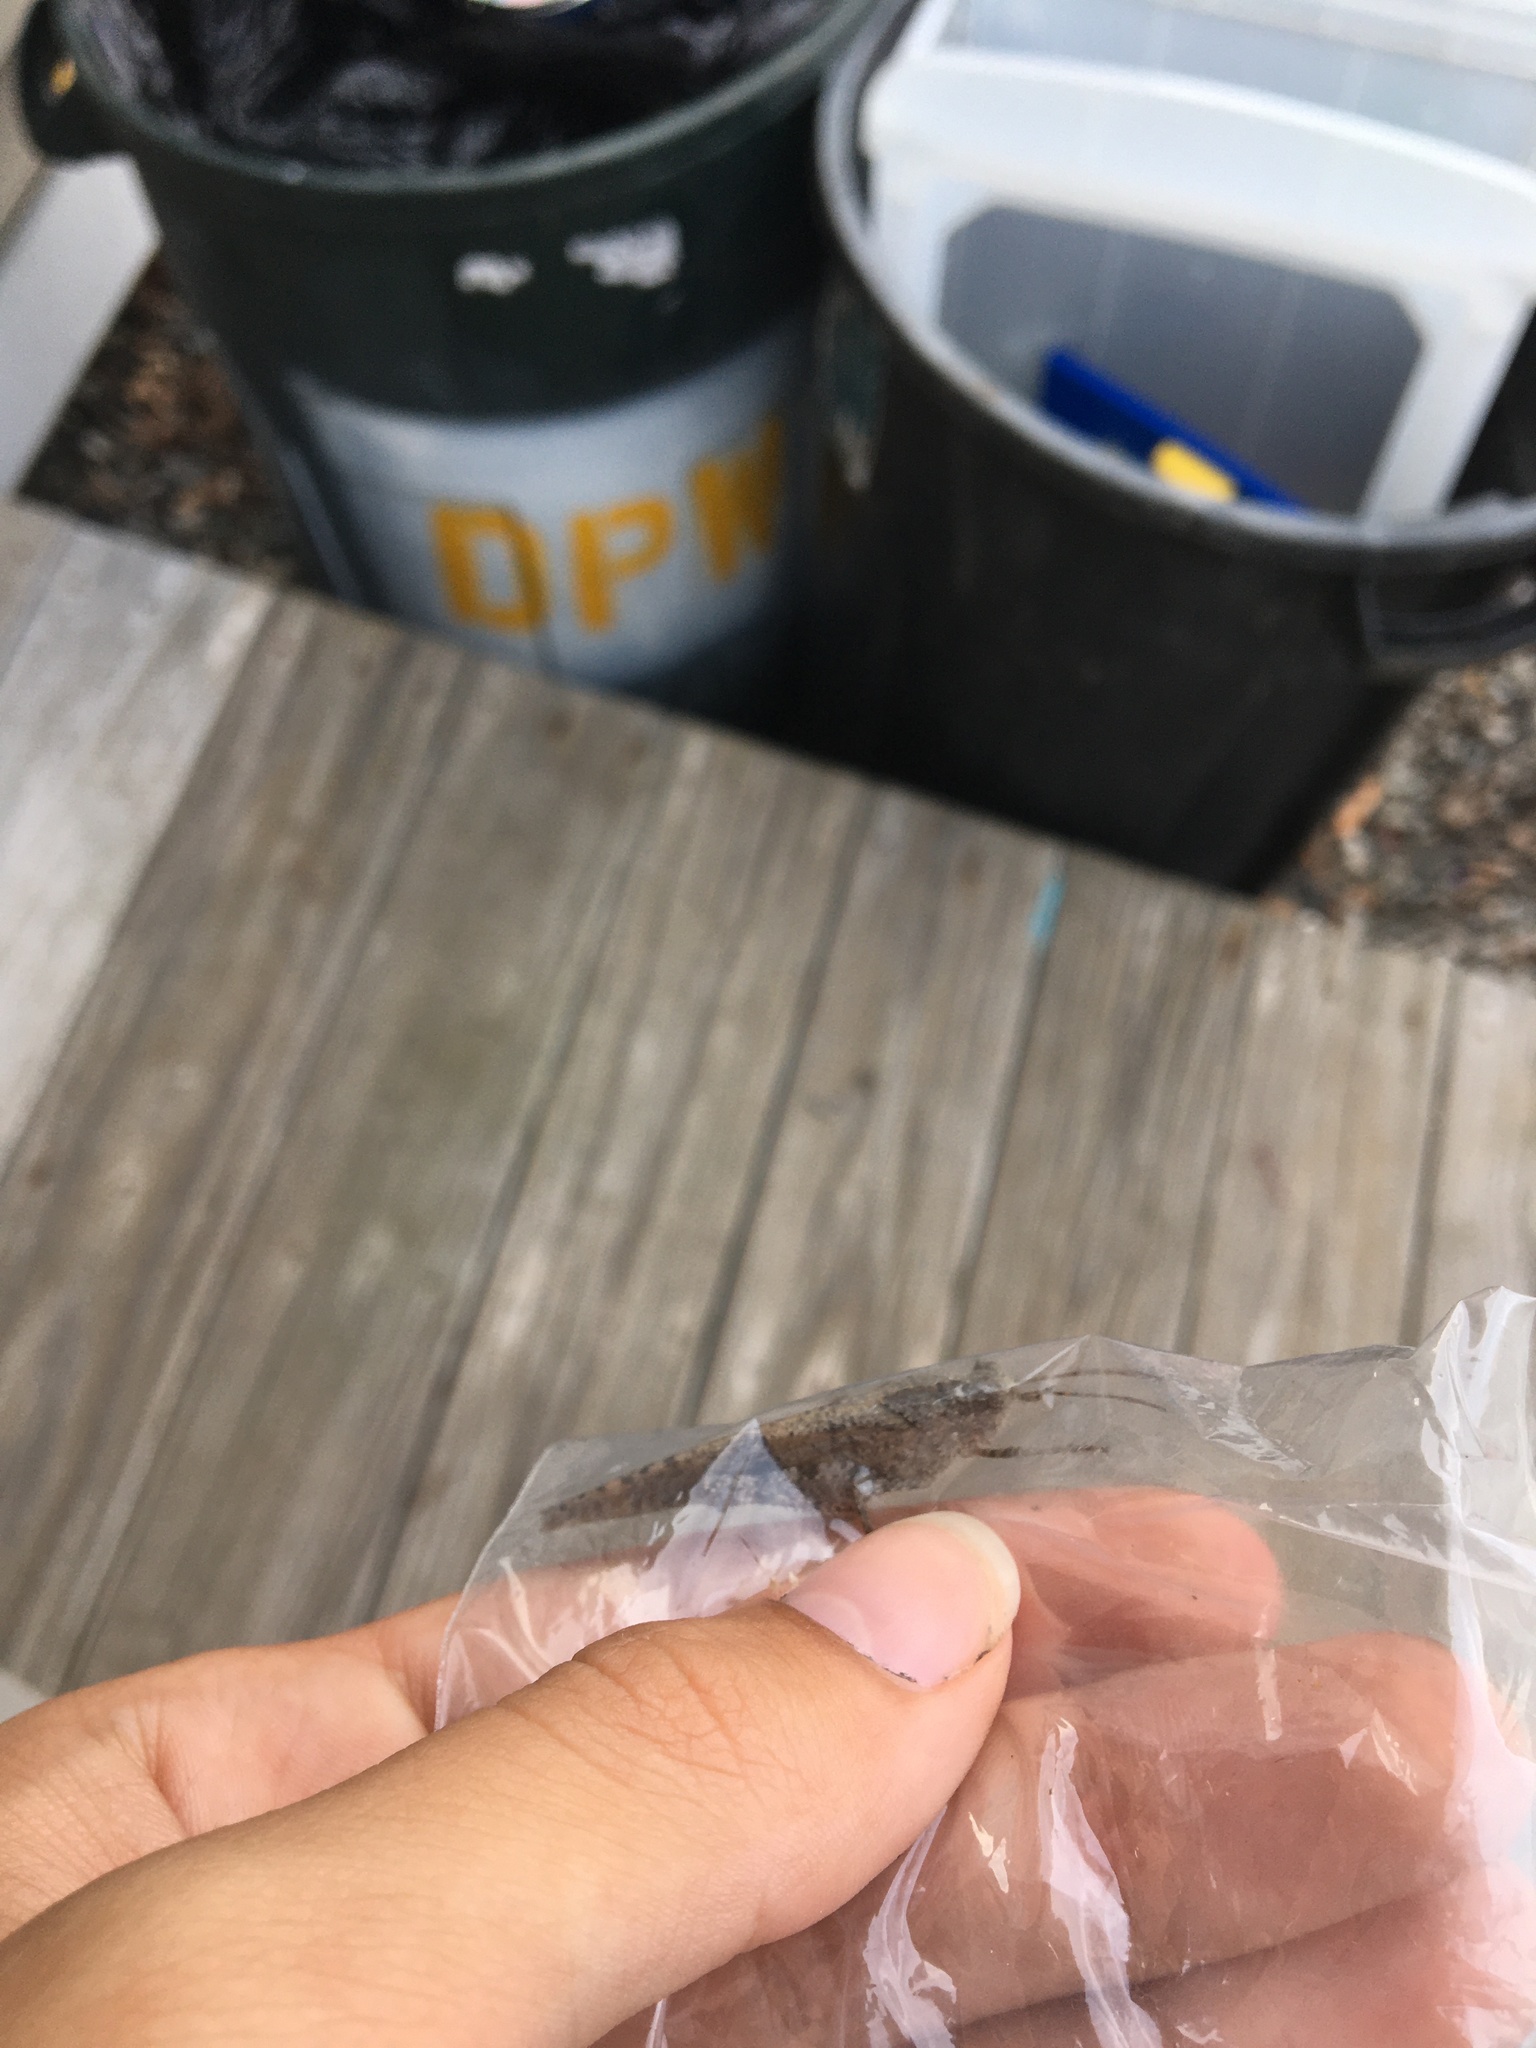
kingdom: Animalia
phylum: Arthropoda
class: Insecta
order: Orthoptera
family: Acrididae
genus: Dissosteira
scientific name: Dissosteira carolina
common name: Carolina grasshopper
